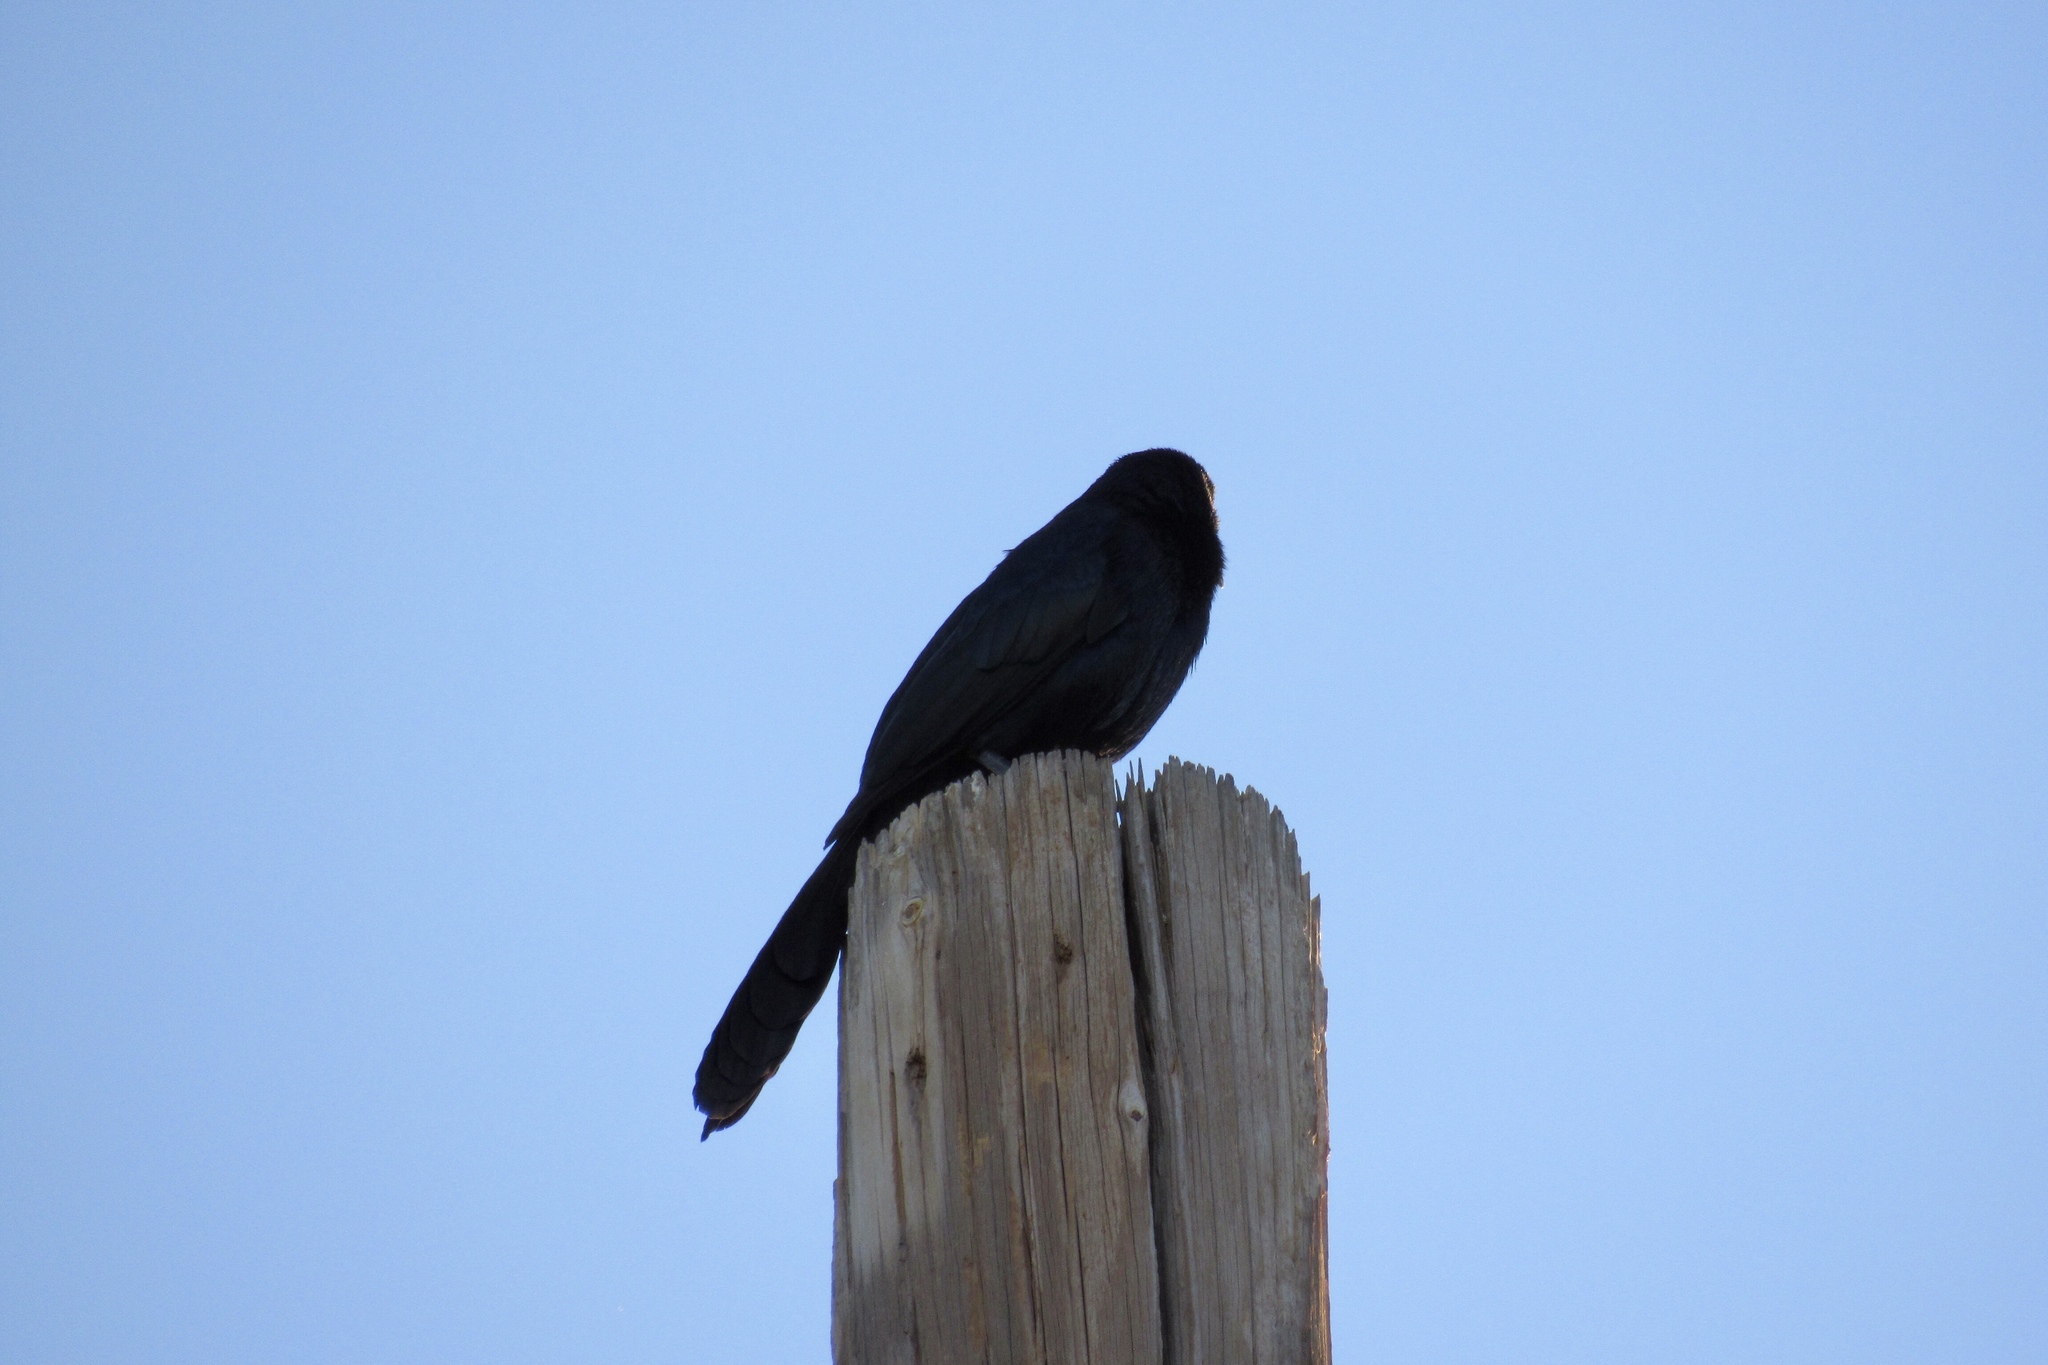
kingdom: Animalia
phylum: Chordata
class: Aves
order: Passeriformes
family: Icteridae
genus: Quiscalus
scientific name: Quiscalus mexicanus
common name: Great-tailed grackle
